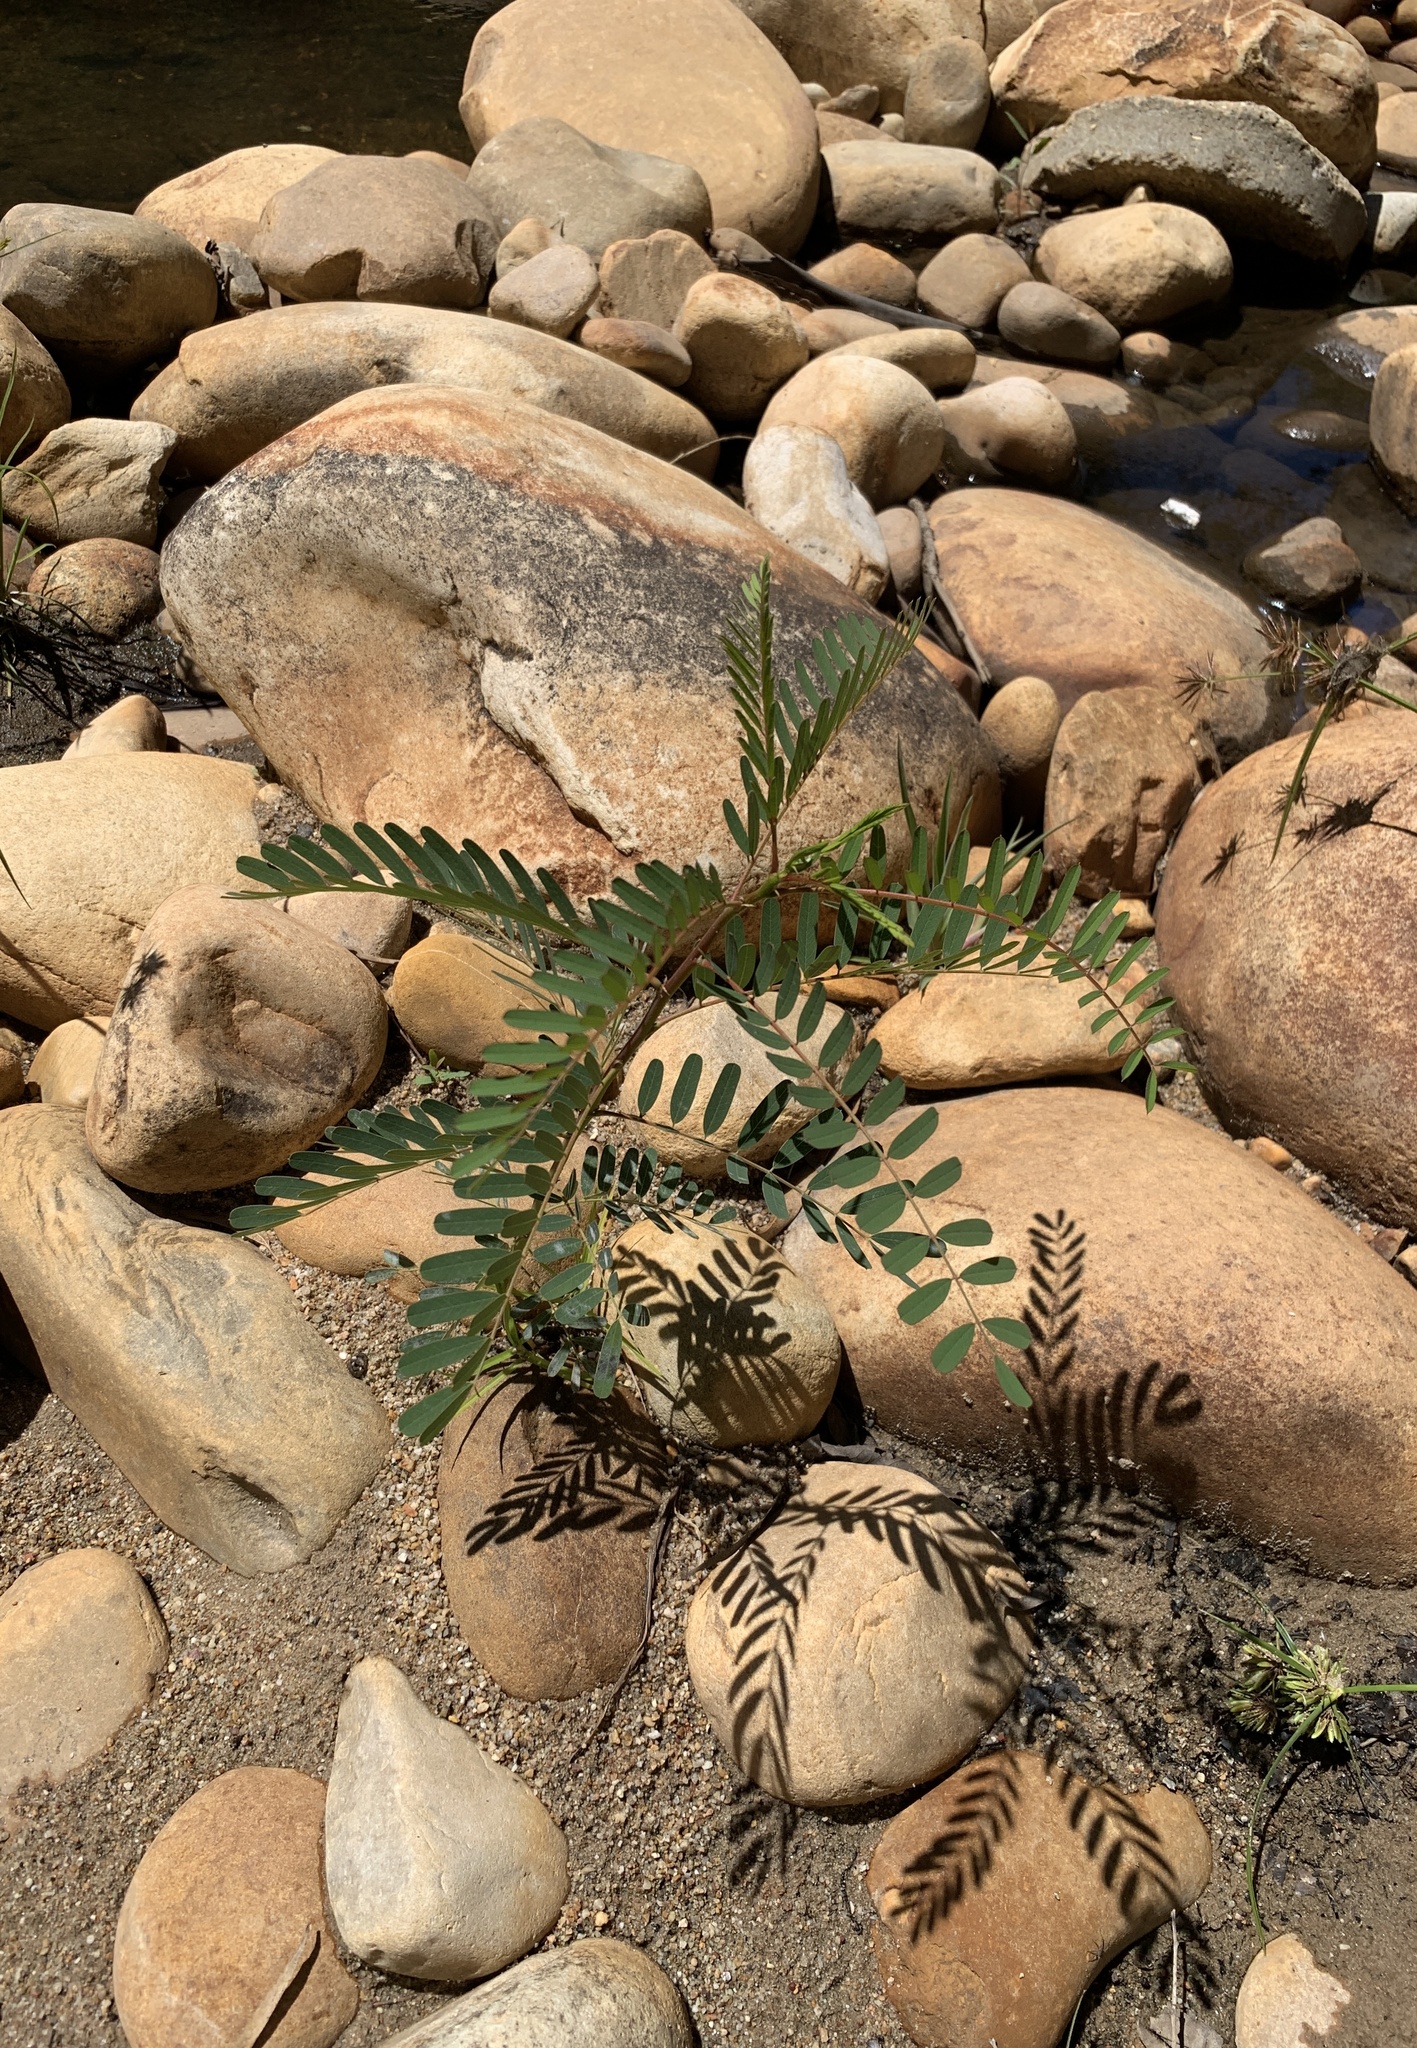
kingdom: Plantae
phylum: Tracheophyta
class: Magnoliopsida
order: Fabales
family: Fabaceae
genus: Sesbania
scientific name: Sesbania punicea
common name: Rattlebox
